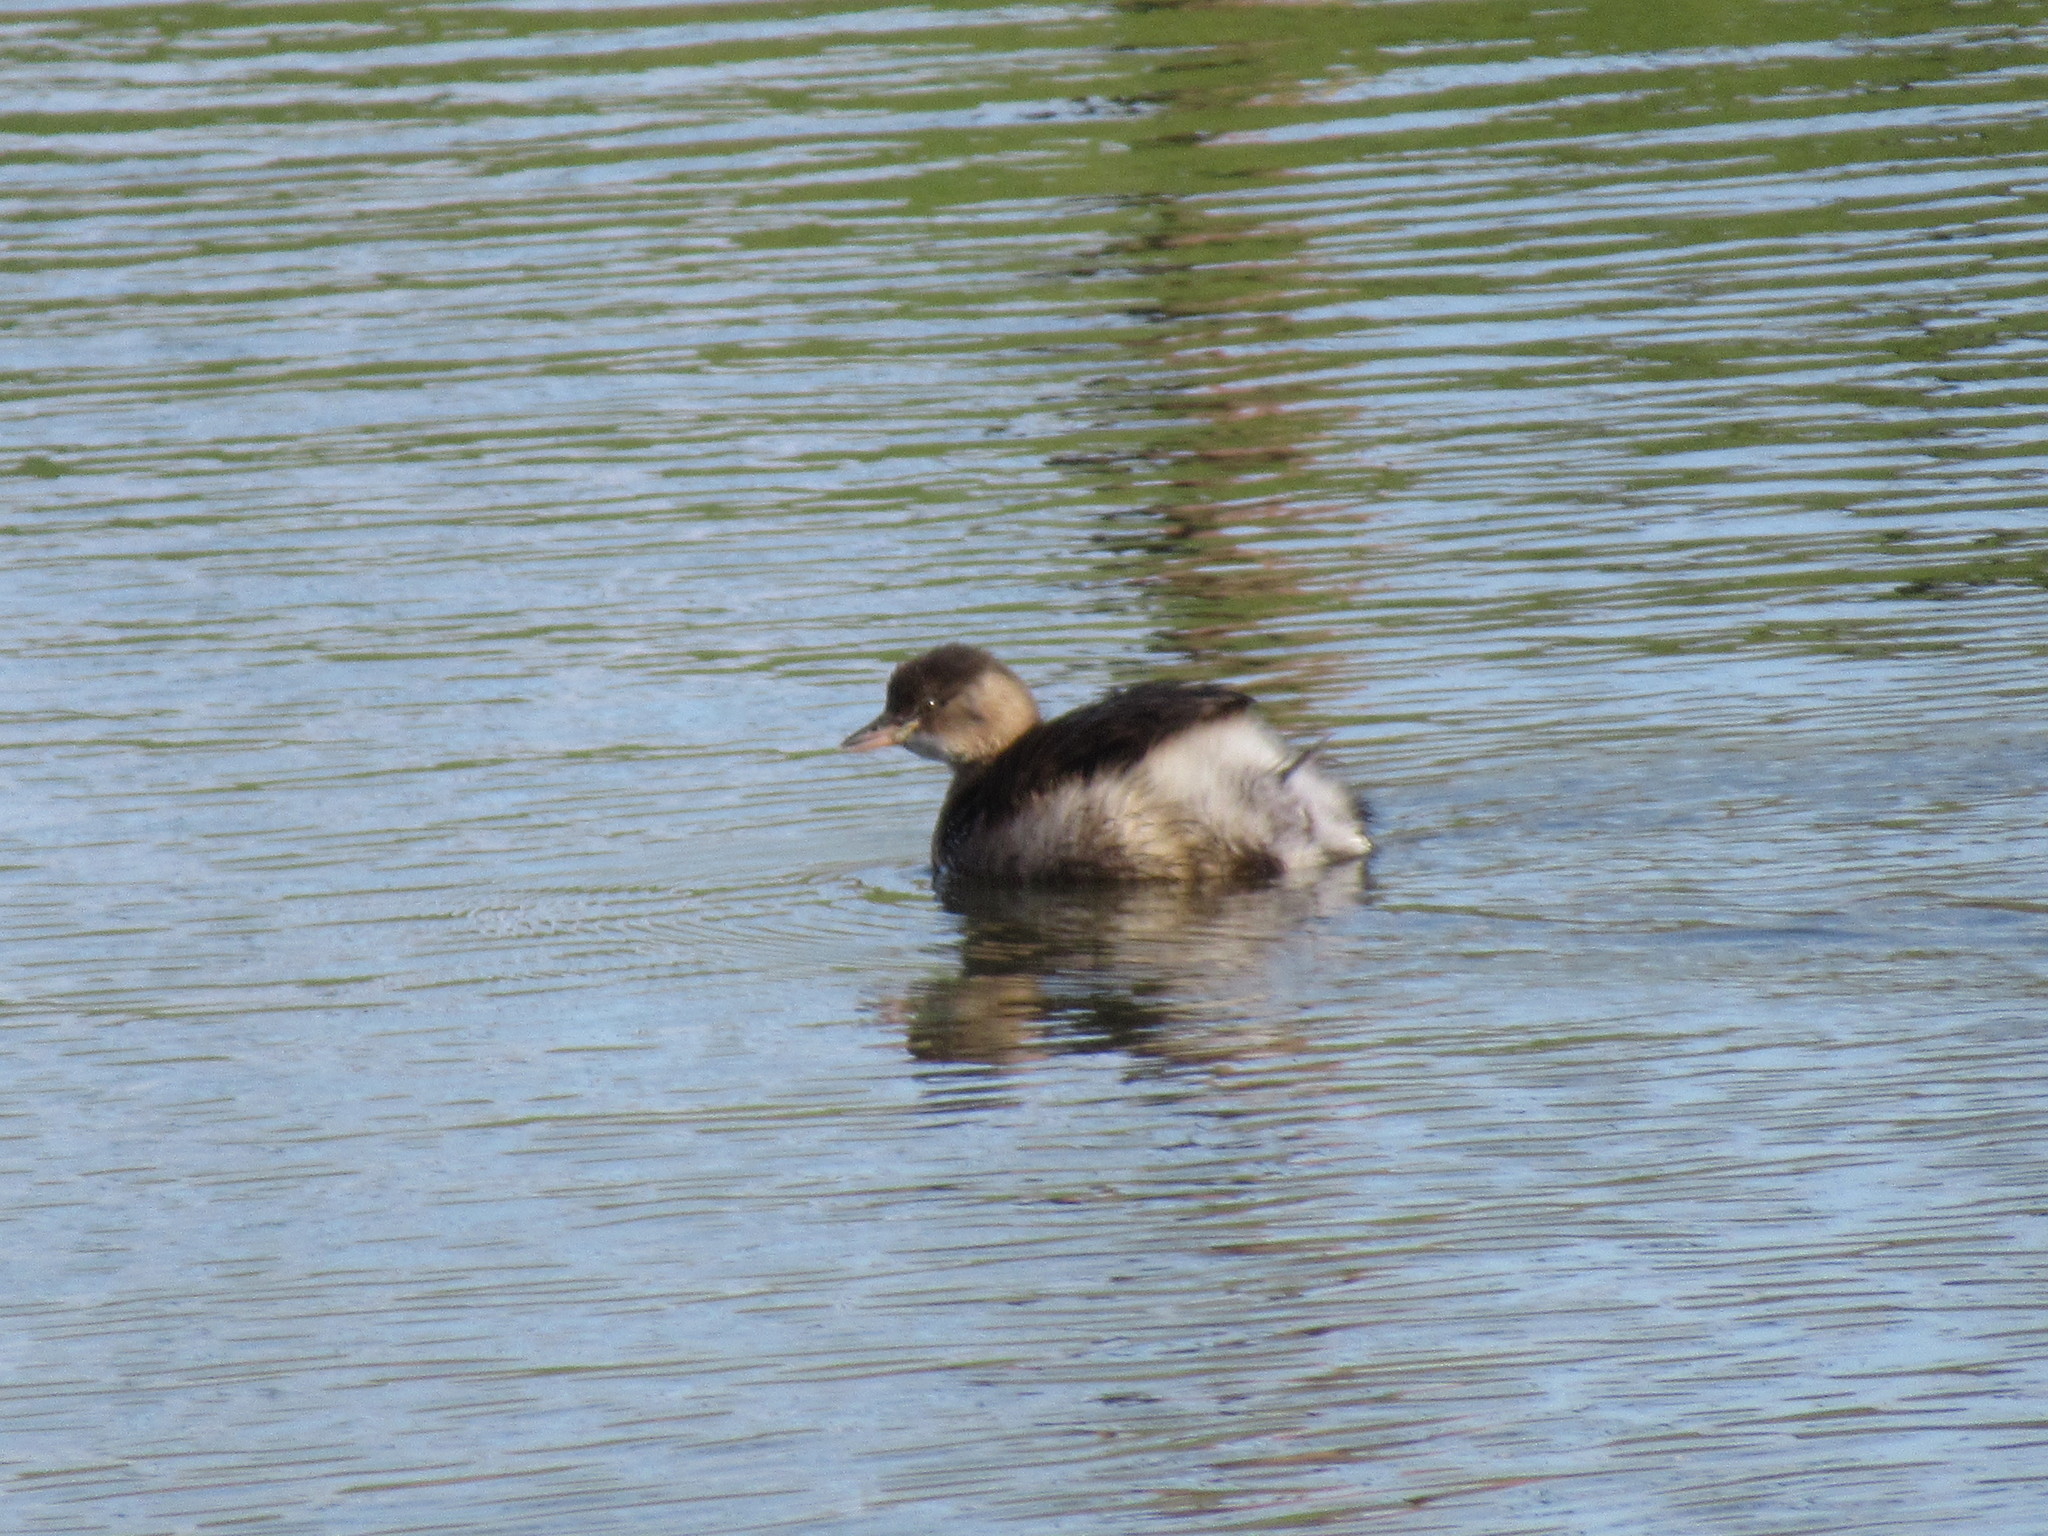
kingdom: Animalia
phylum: Chordata
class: Aves
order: Podicipediformes
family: Podicipedidae
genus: Tachybaptus
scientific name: Tachybaptus ruficollis
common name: Little grebe
